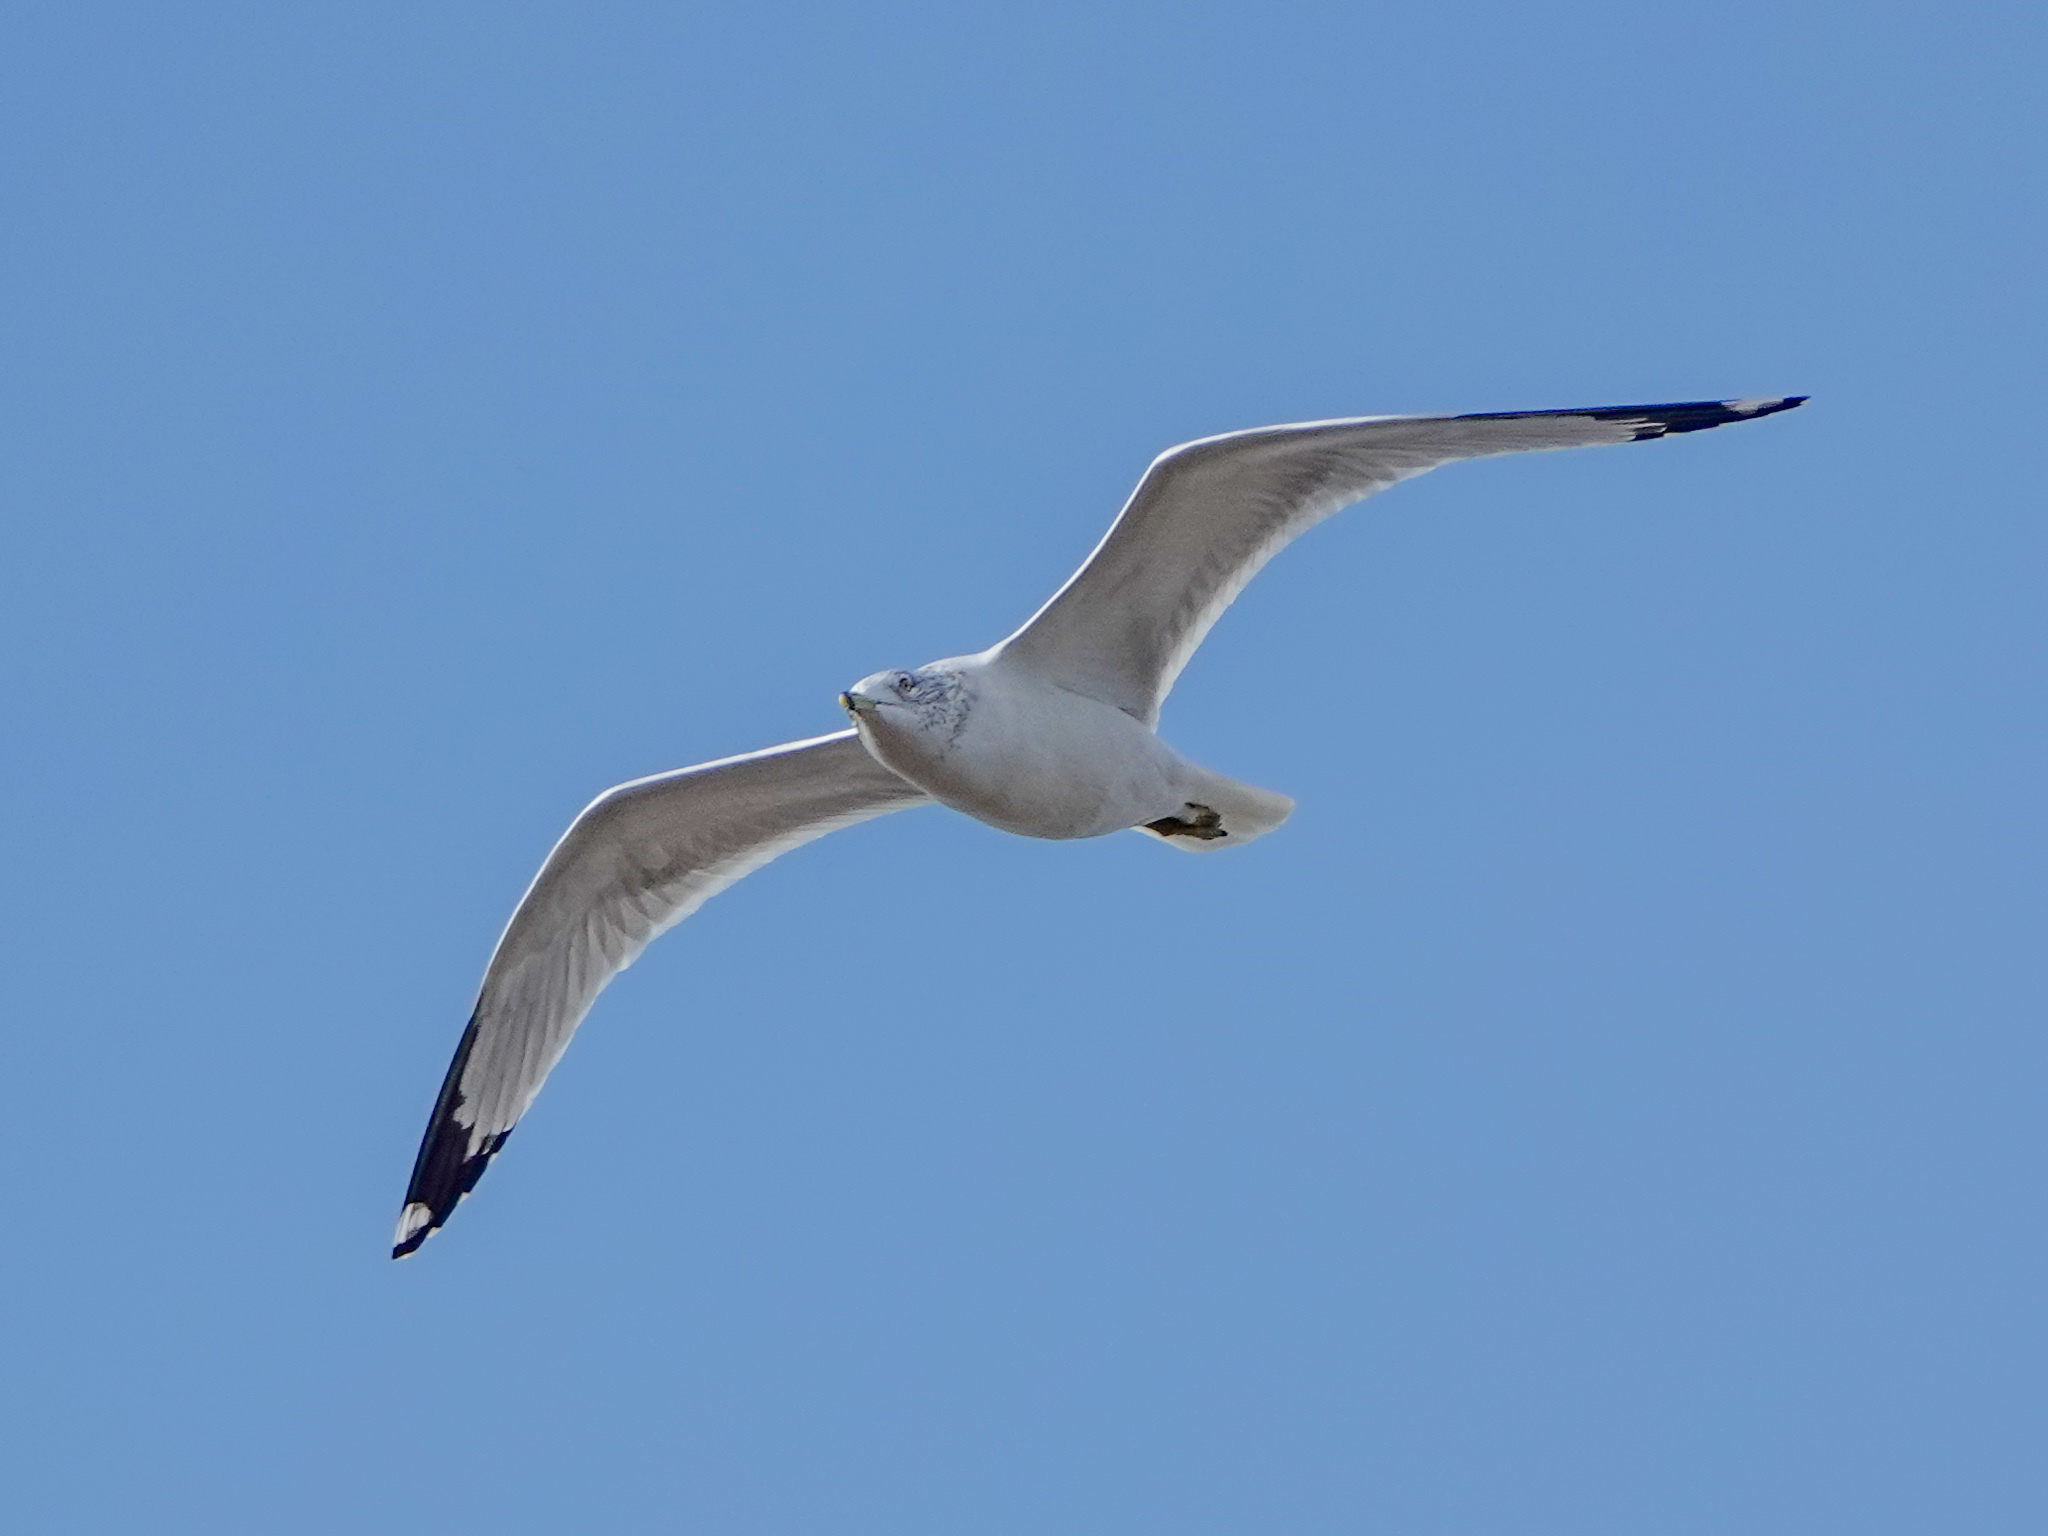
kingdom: Animalia
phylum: Chordata
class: Aves
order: Charadriiformes
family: Laridae
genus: Larus
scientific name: Larus delawarensis
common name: Ring-billed gull
